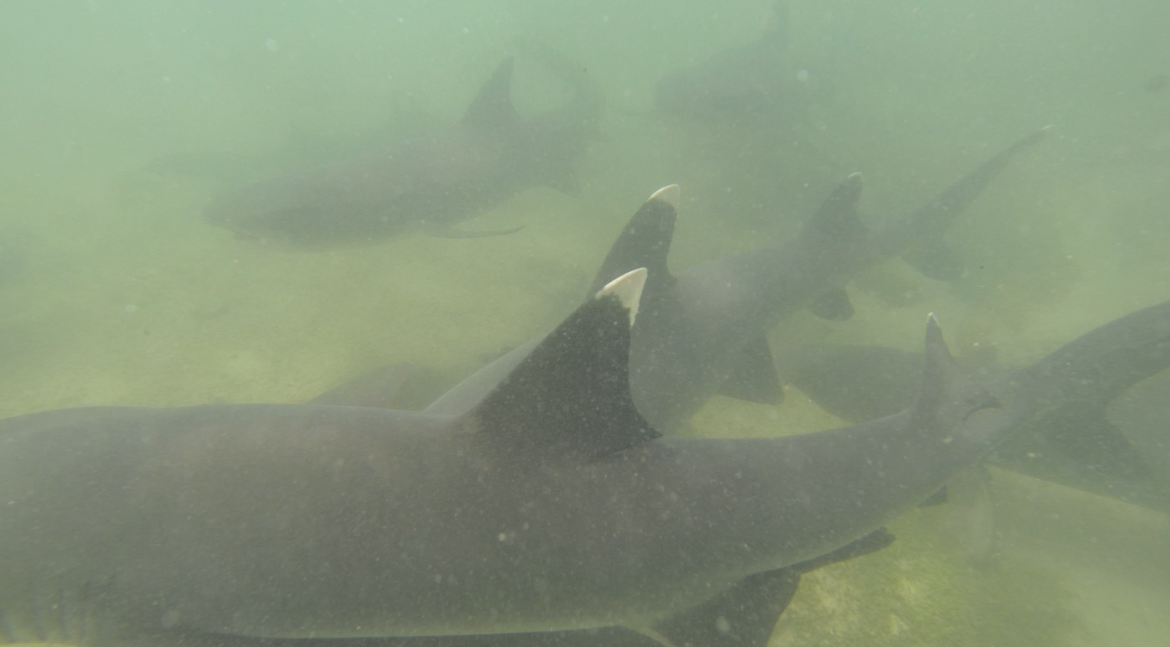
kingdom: Animalia
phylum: Chordata
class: Elasmobranchii
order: Carcharhiniformes
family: Carcharhinidae
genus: Triaenodon
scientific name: Triaenodon obesus
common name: Whitetip reef shark
